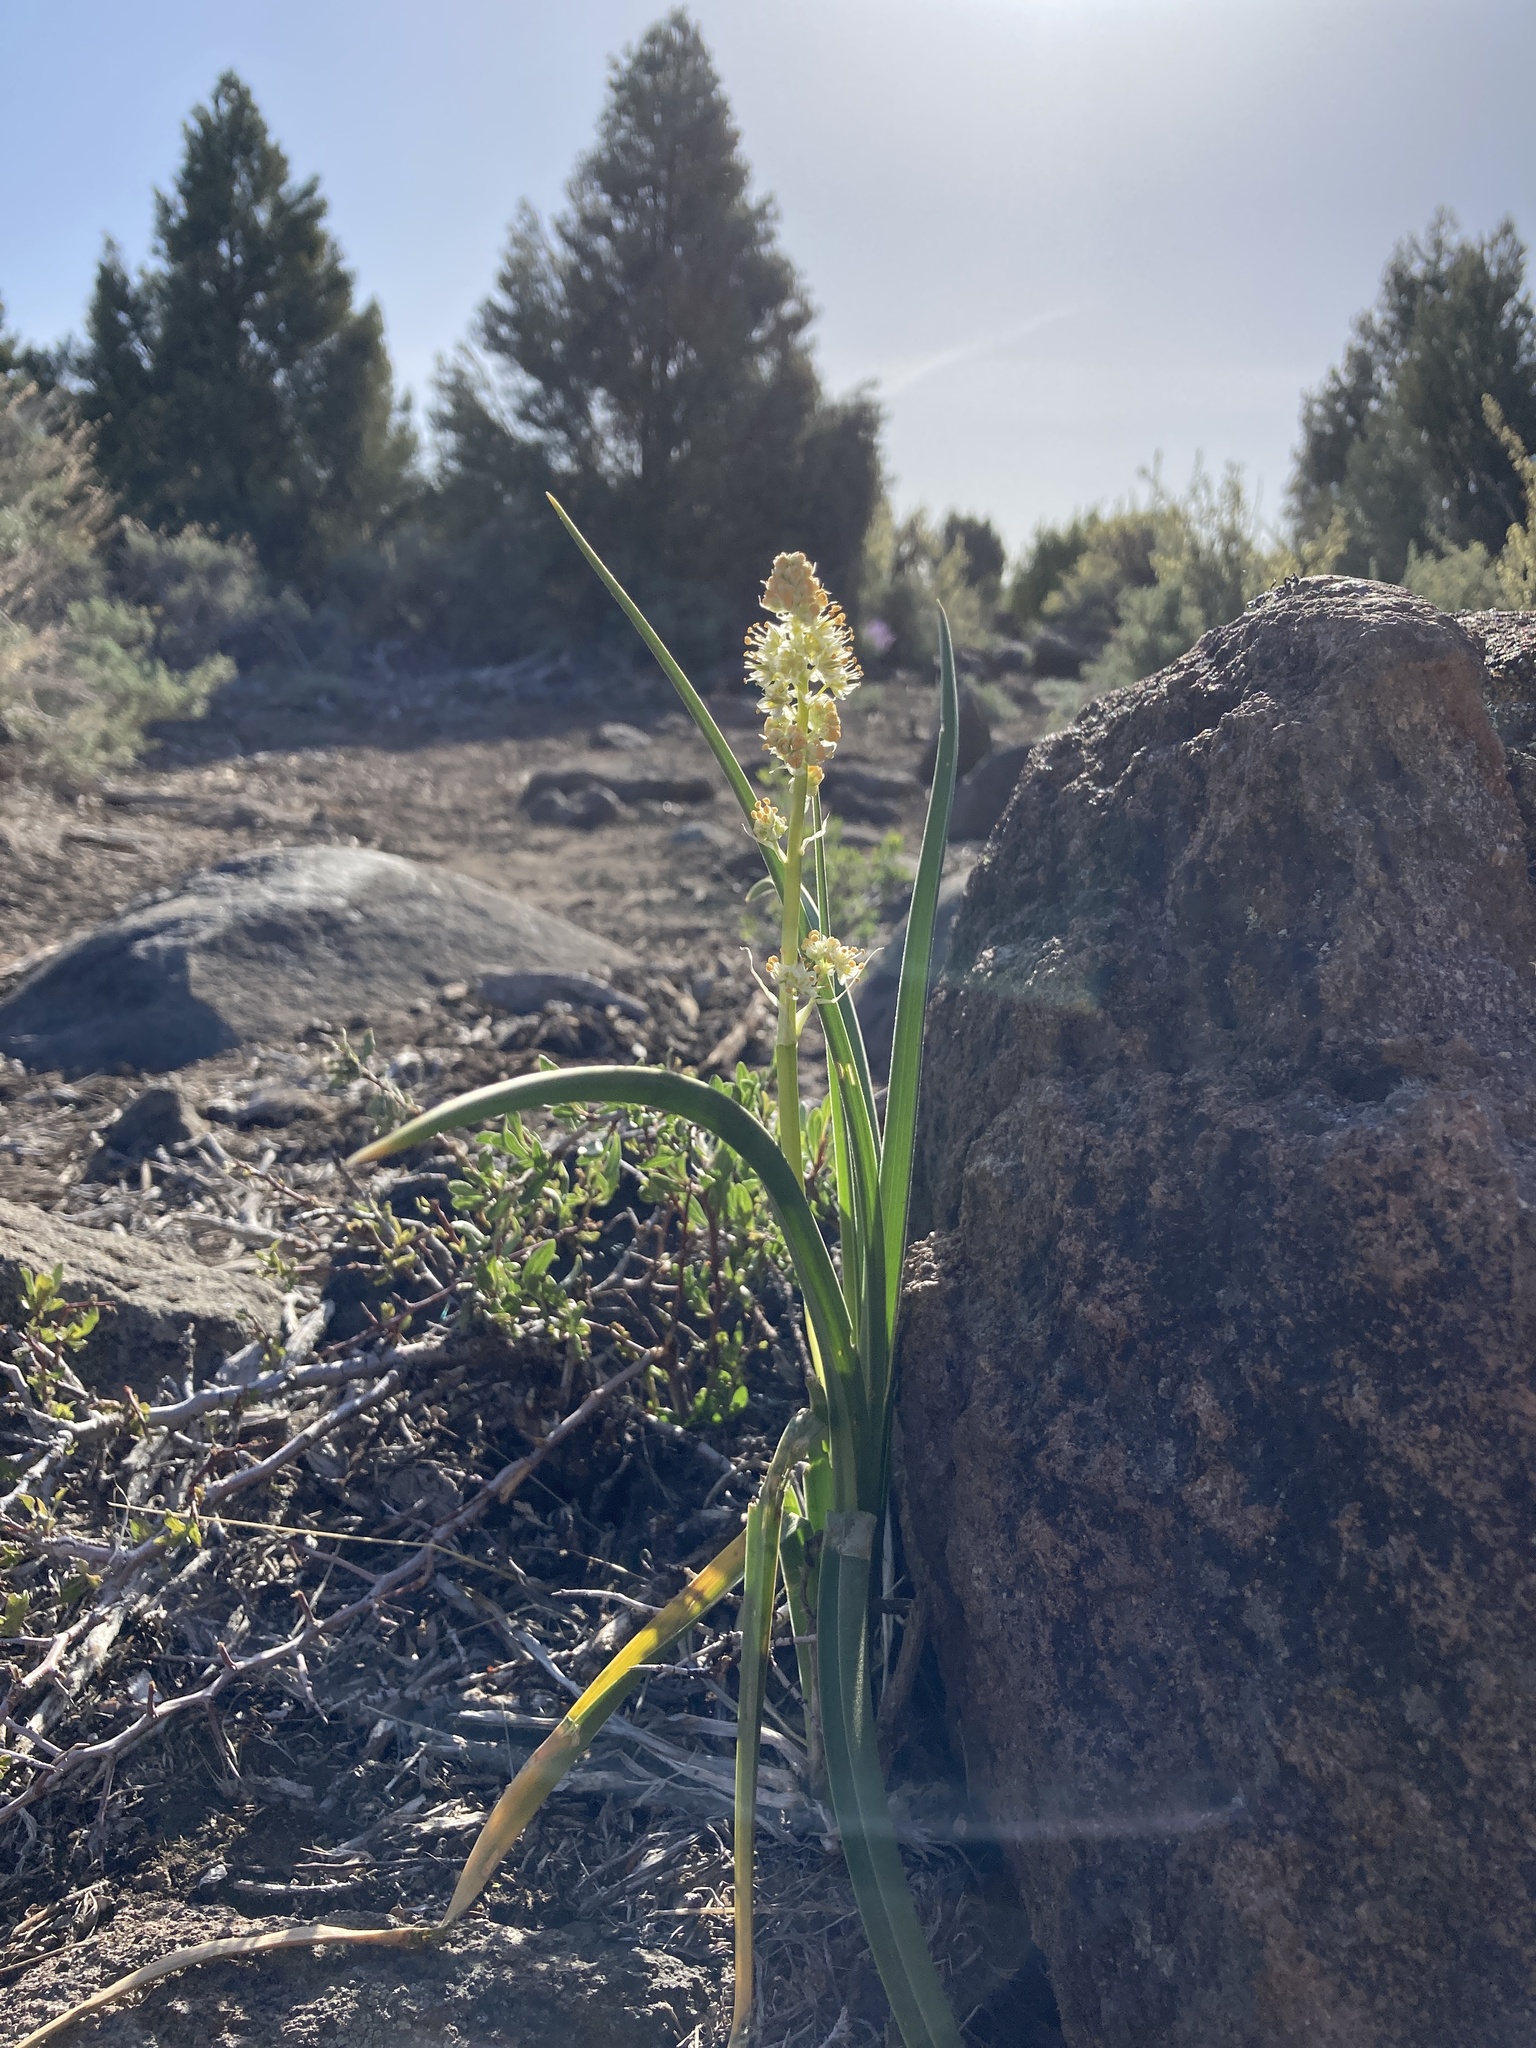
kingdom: Plantae
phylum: Tracheophyta
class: Liliopsida
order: Liliales
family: Melanthiaceae
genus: Toxicoscordion
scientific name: Toxicoscordion paniculatum
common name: Foothill death camas
